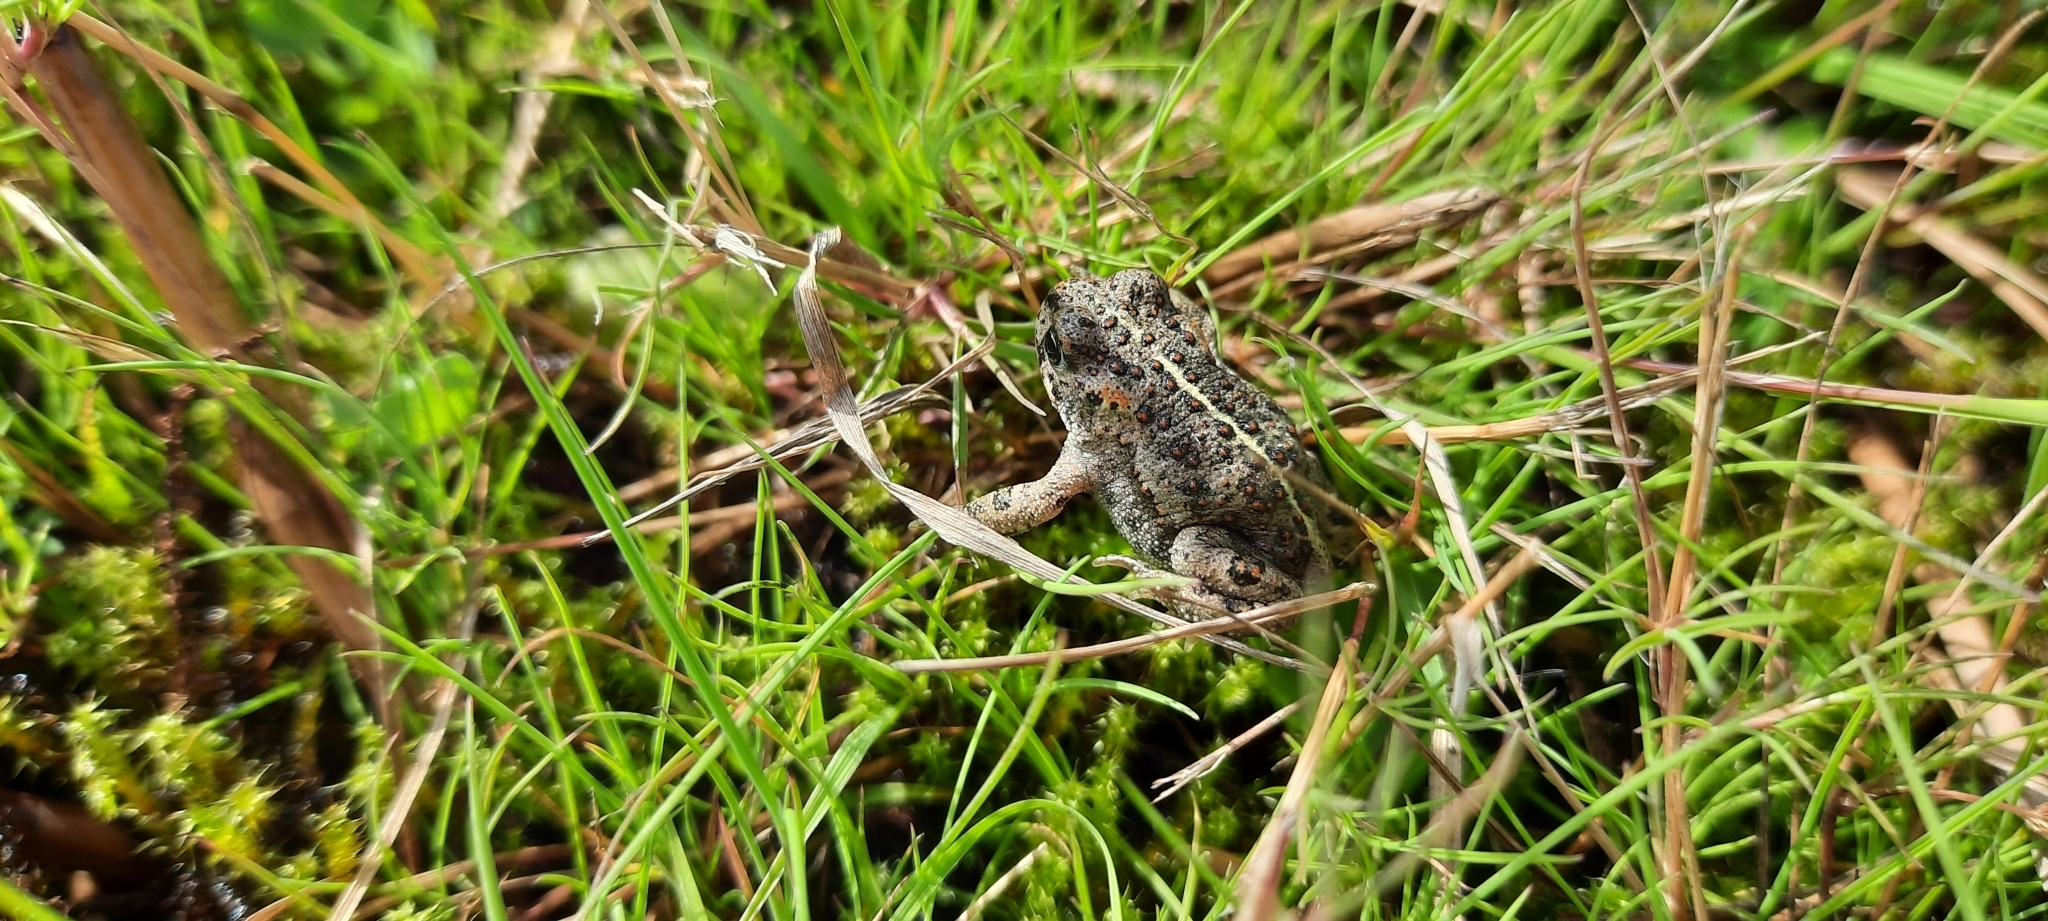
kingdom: Animalia
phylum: Chordata
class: Amphibia
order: Anura
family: Bufonidae
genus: Epidalea
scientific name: Epidalea calamita
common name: Natterjack toad
